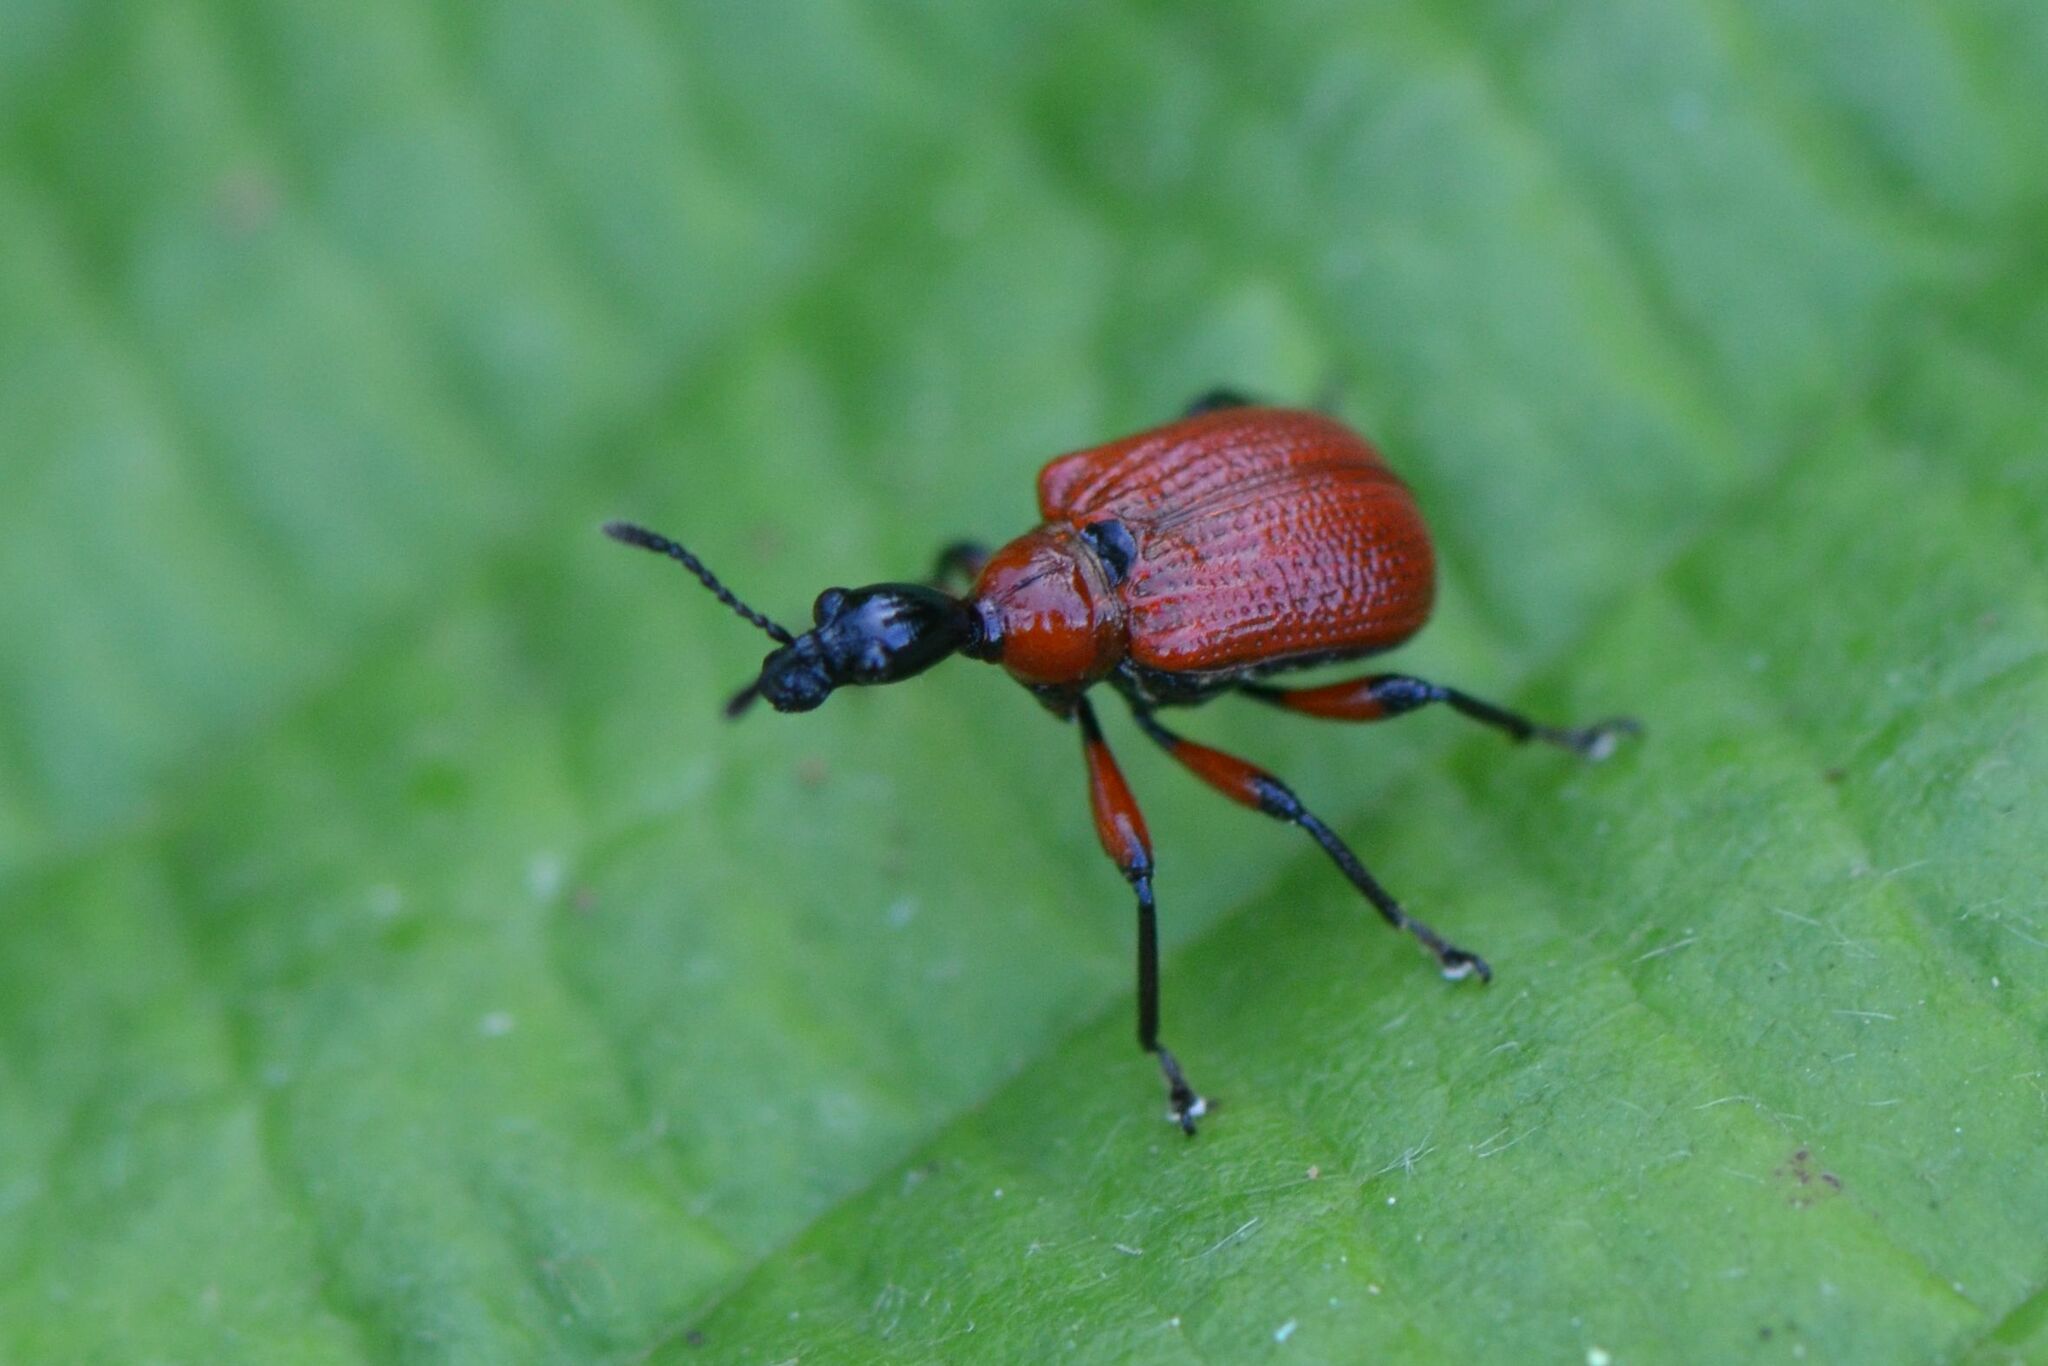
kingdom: Animalia
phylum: Arthropoda
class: Insecta
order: Coleoptera
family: Attelabidae
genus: Apoderus
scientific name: Apoderus coryli
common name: Hazel leaf roller
